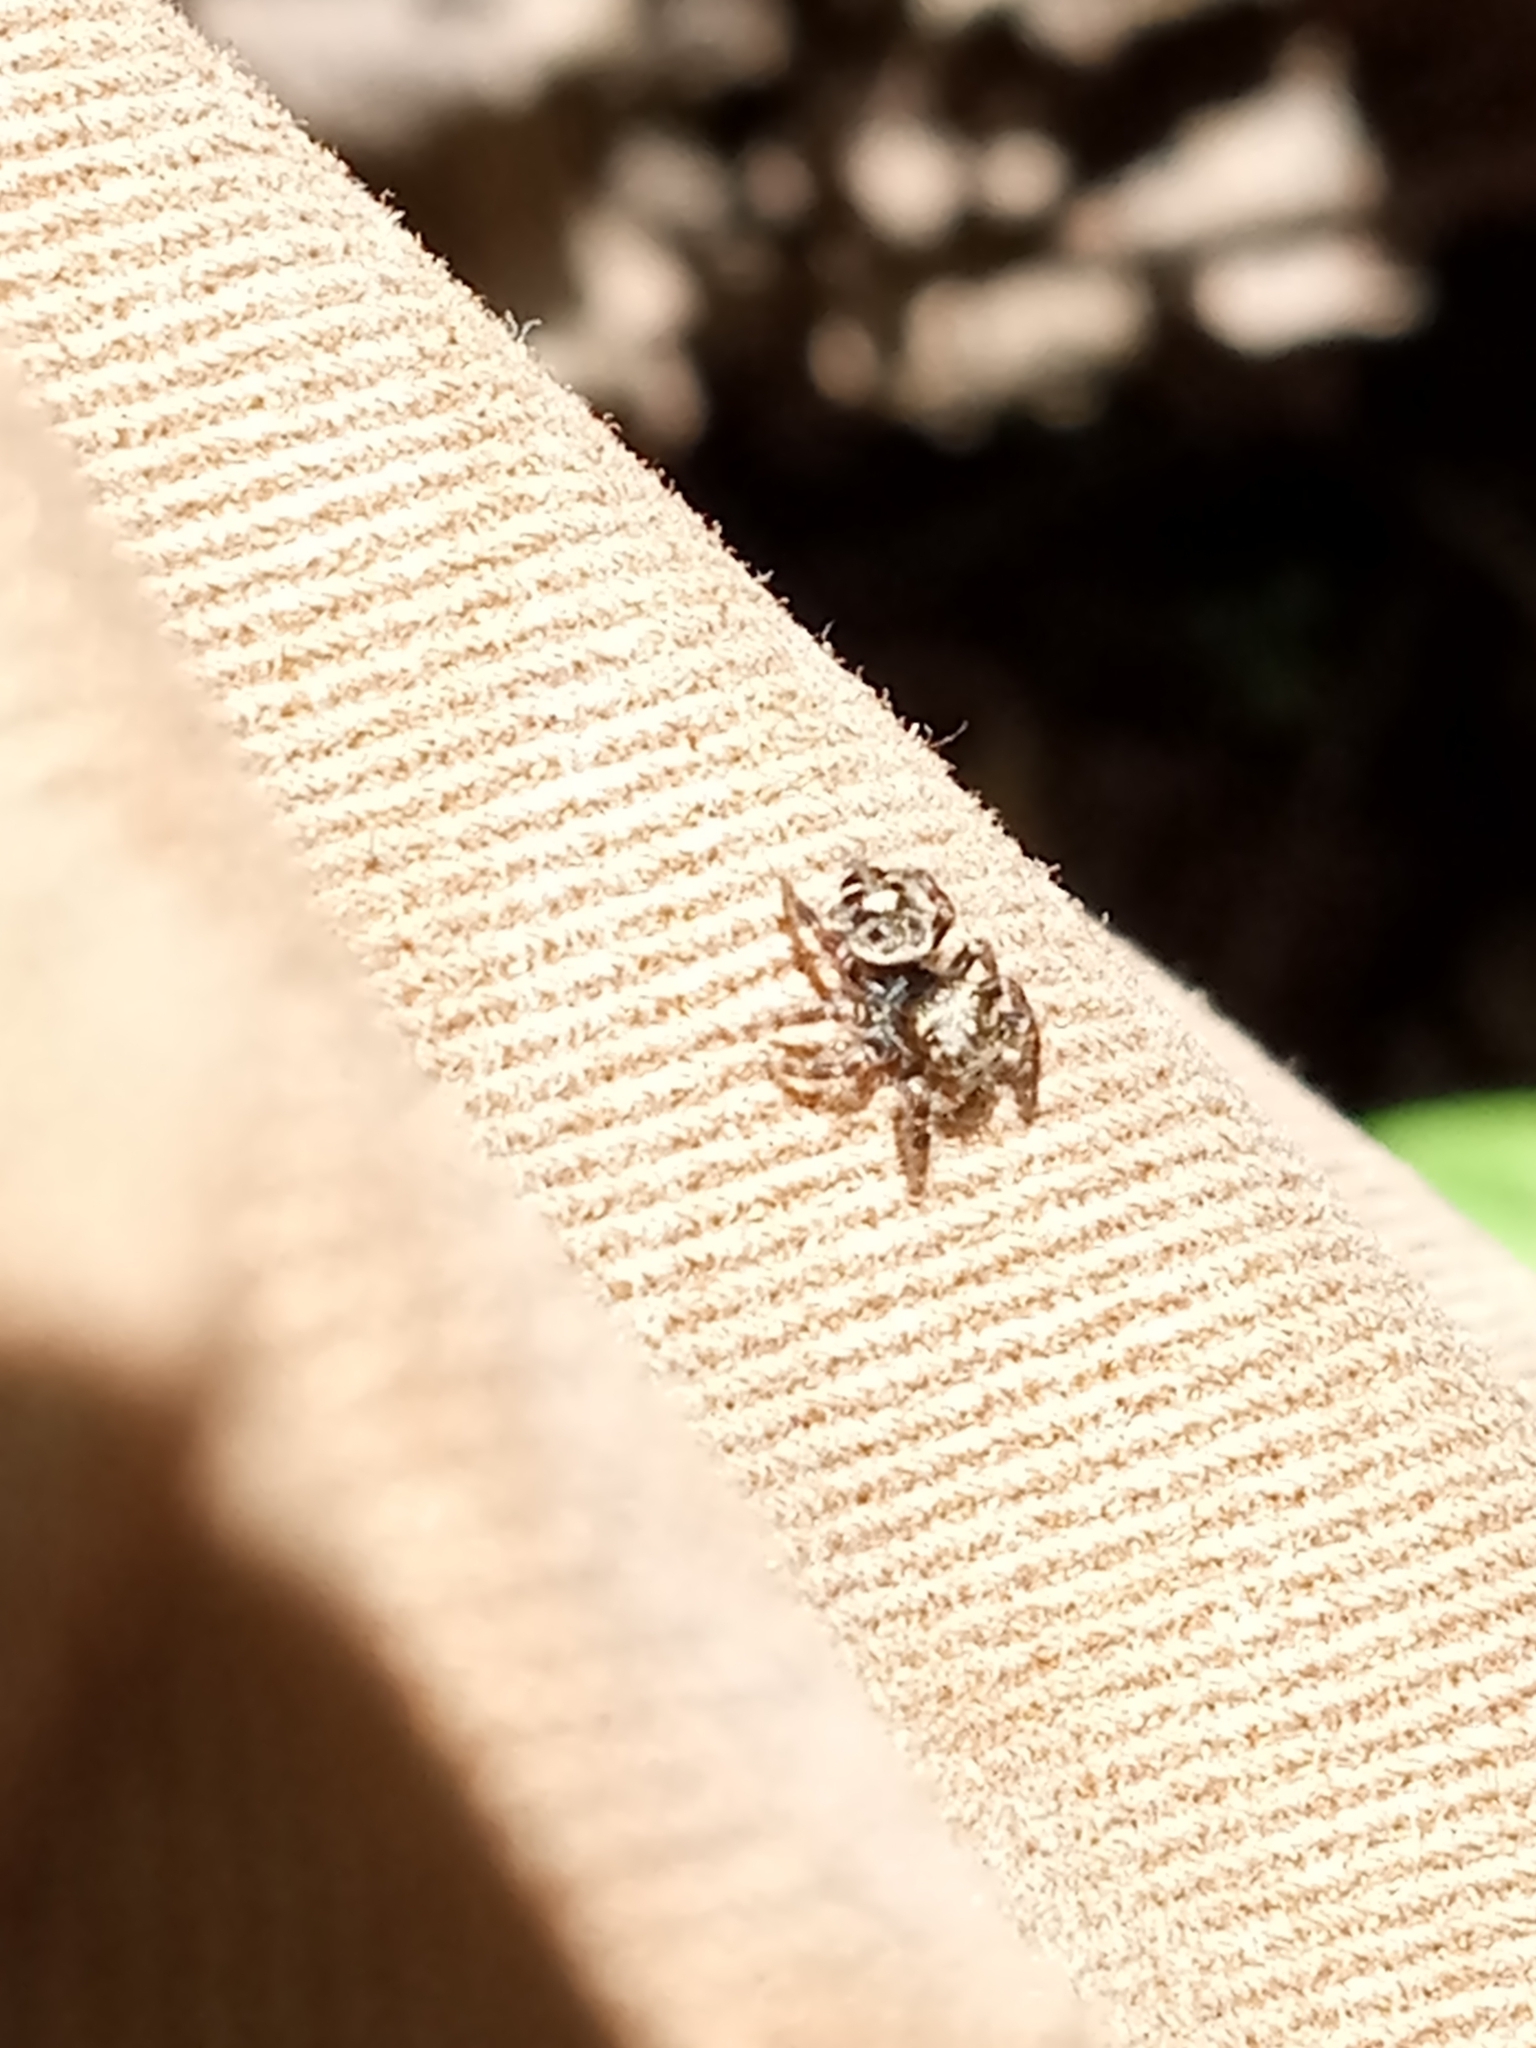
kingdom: Animalia
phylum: Arthropoda
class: Arachnida
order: Araneae
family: Salticidae
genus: Phidippus
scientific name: Phidippus putnami
